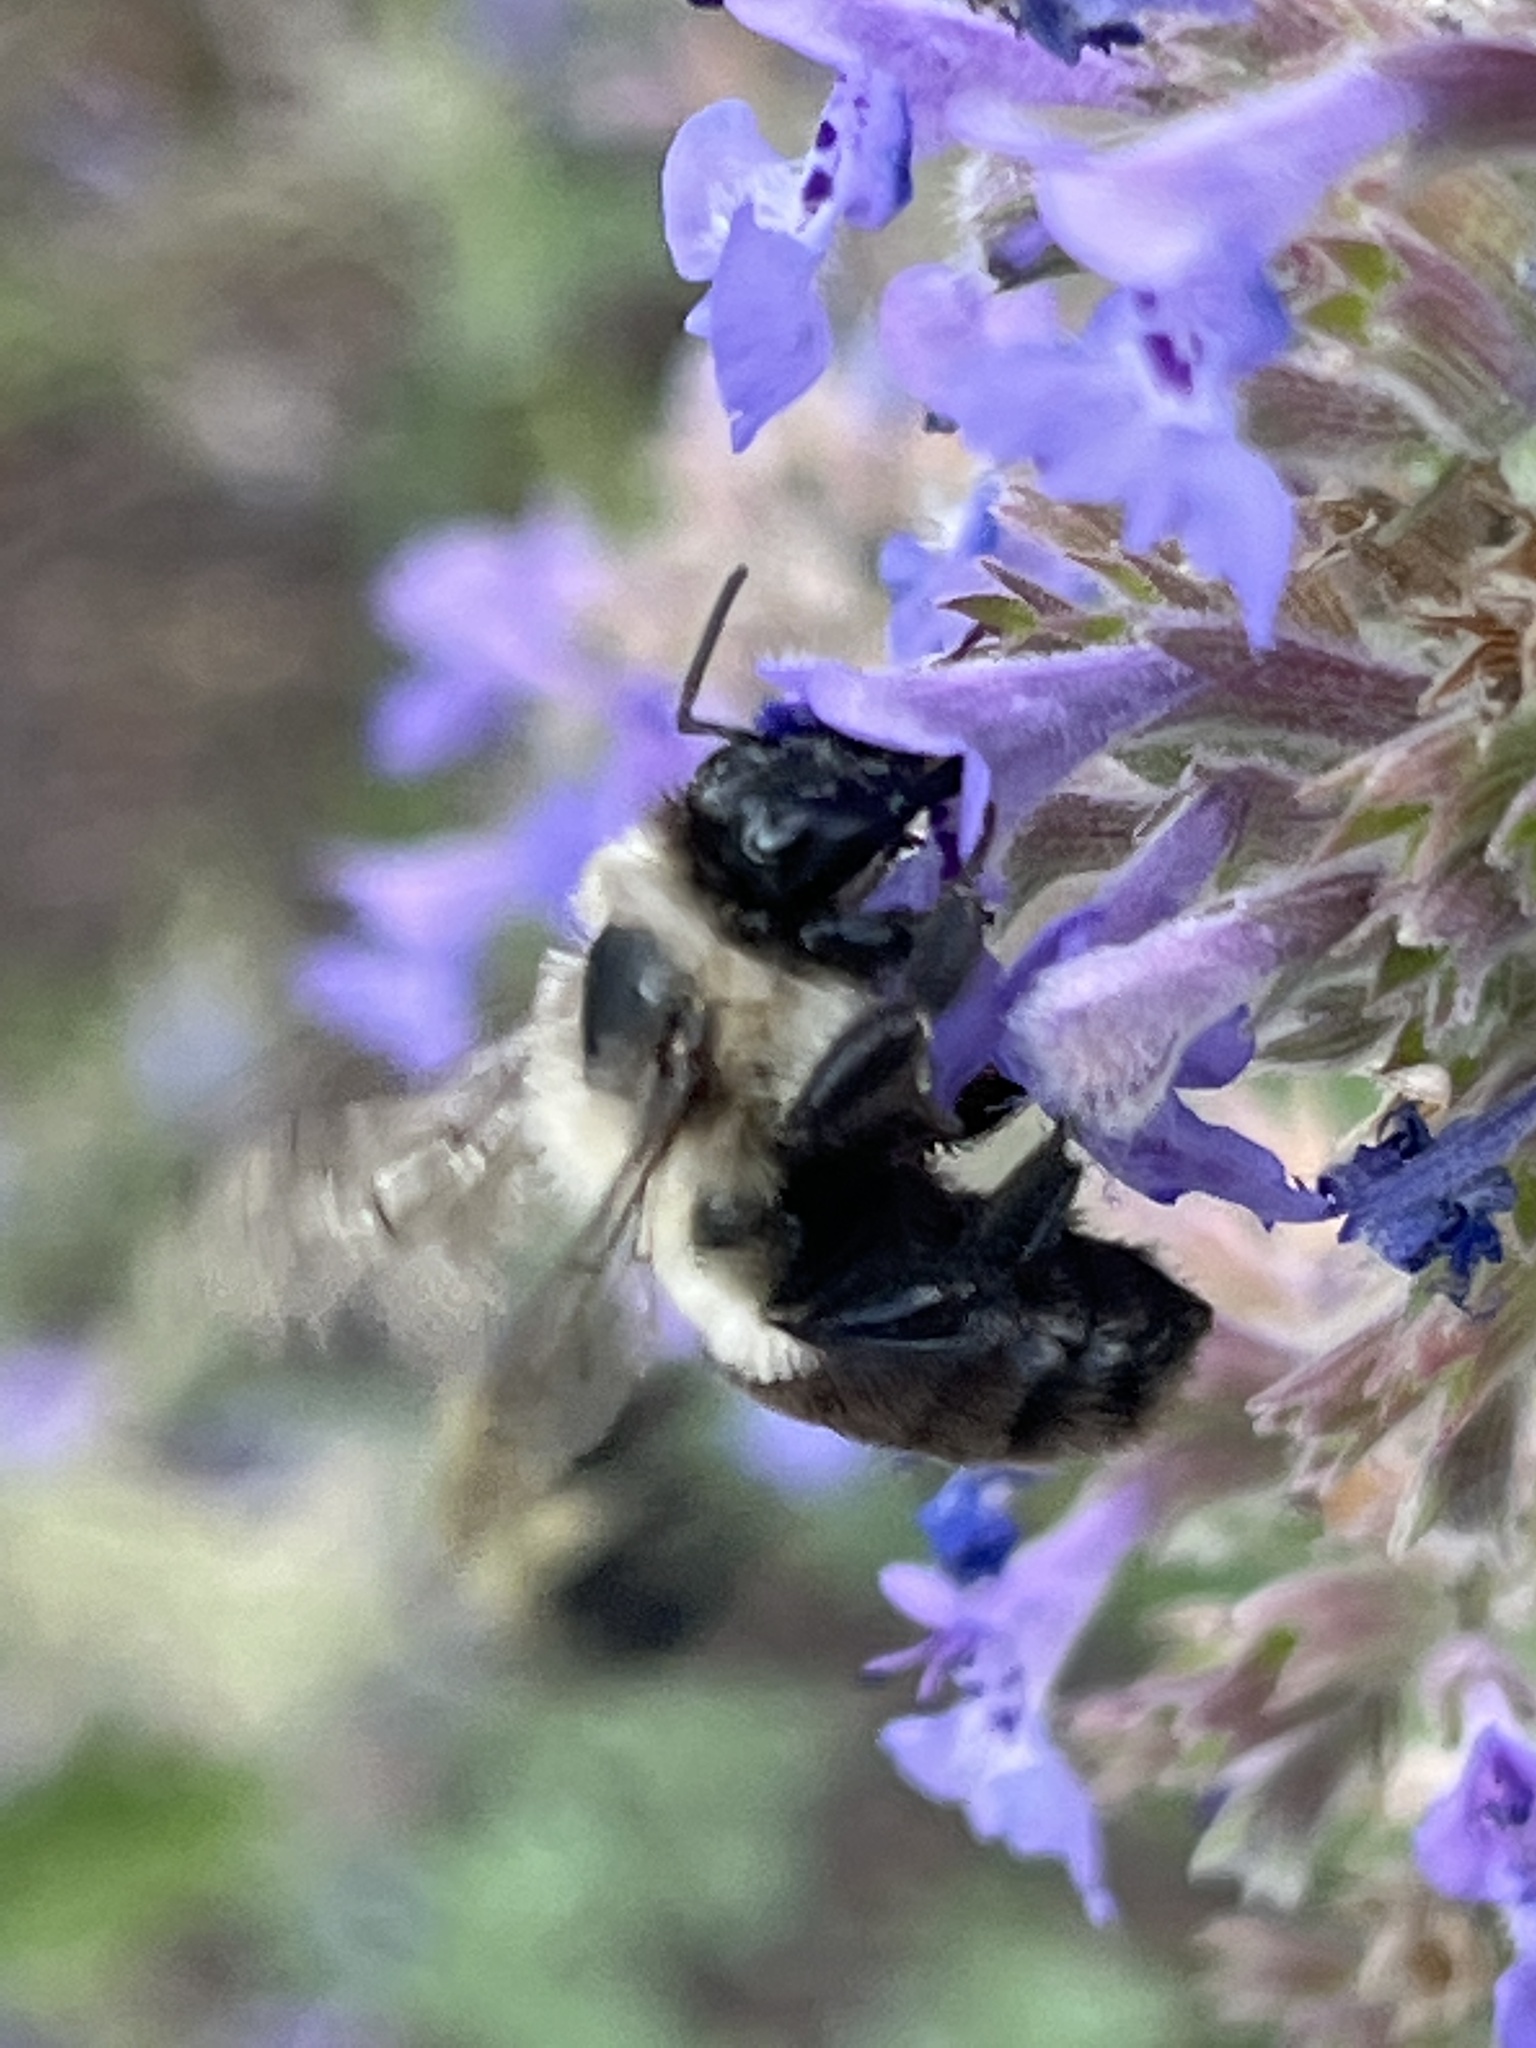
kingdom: Animalia
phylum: Arthropoda
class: Insecta
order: Hymenoptera
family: Apidae
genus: Bombus
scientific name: Bombus impatiens
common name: Common eastern bumble bee
